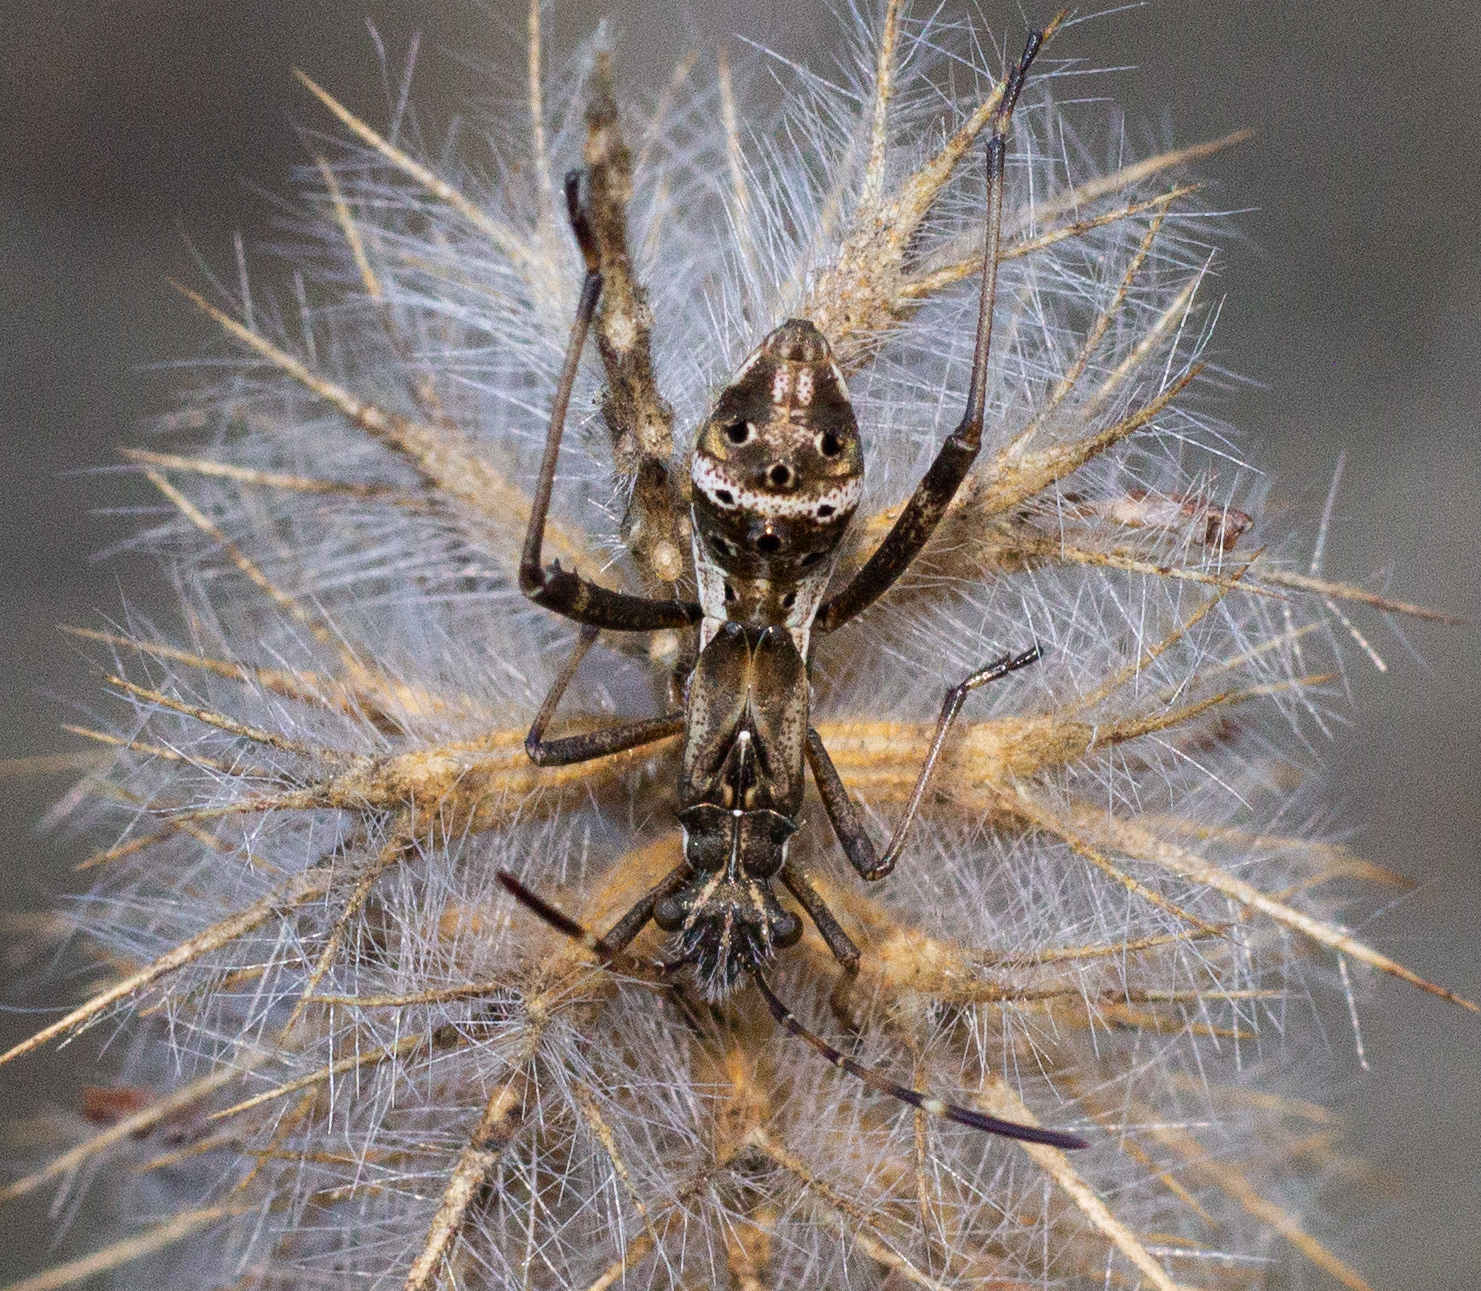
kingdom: Animalia
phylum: Arthropoda
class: Insecta
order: Hemiptera
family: Alydidae
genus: Camptopus
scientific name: Camptopus lateralis
